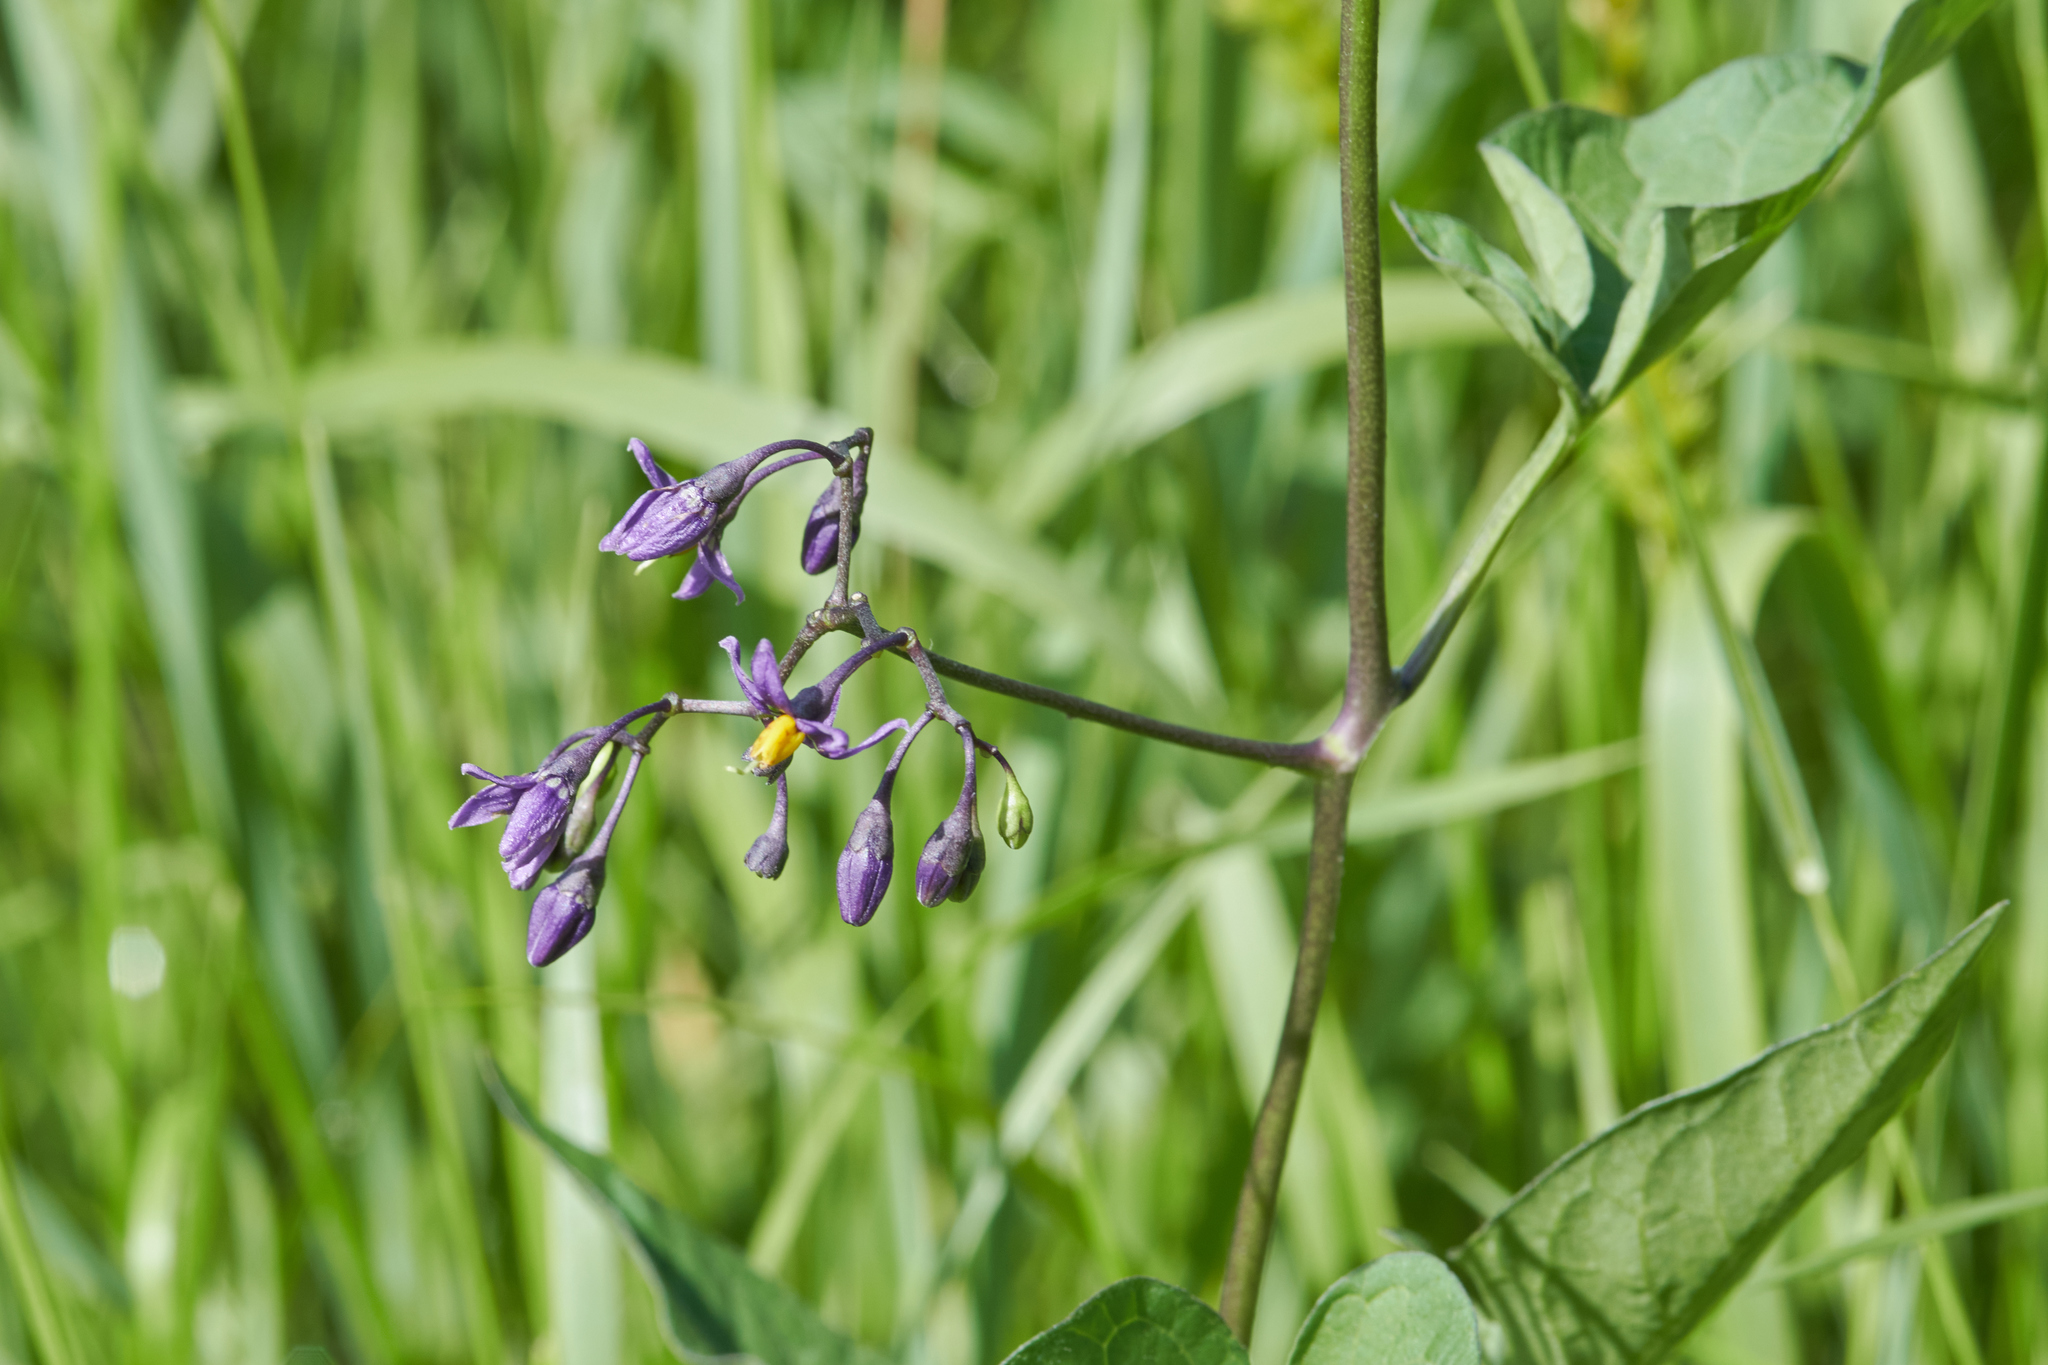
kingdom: Plantae
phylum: Tracheophyta
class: Magnoliopsida
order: Solanales
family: Solanaceae
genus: Solanum
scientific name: Solanum dulcamara
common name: Climbing nightshade
